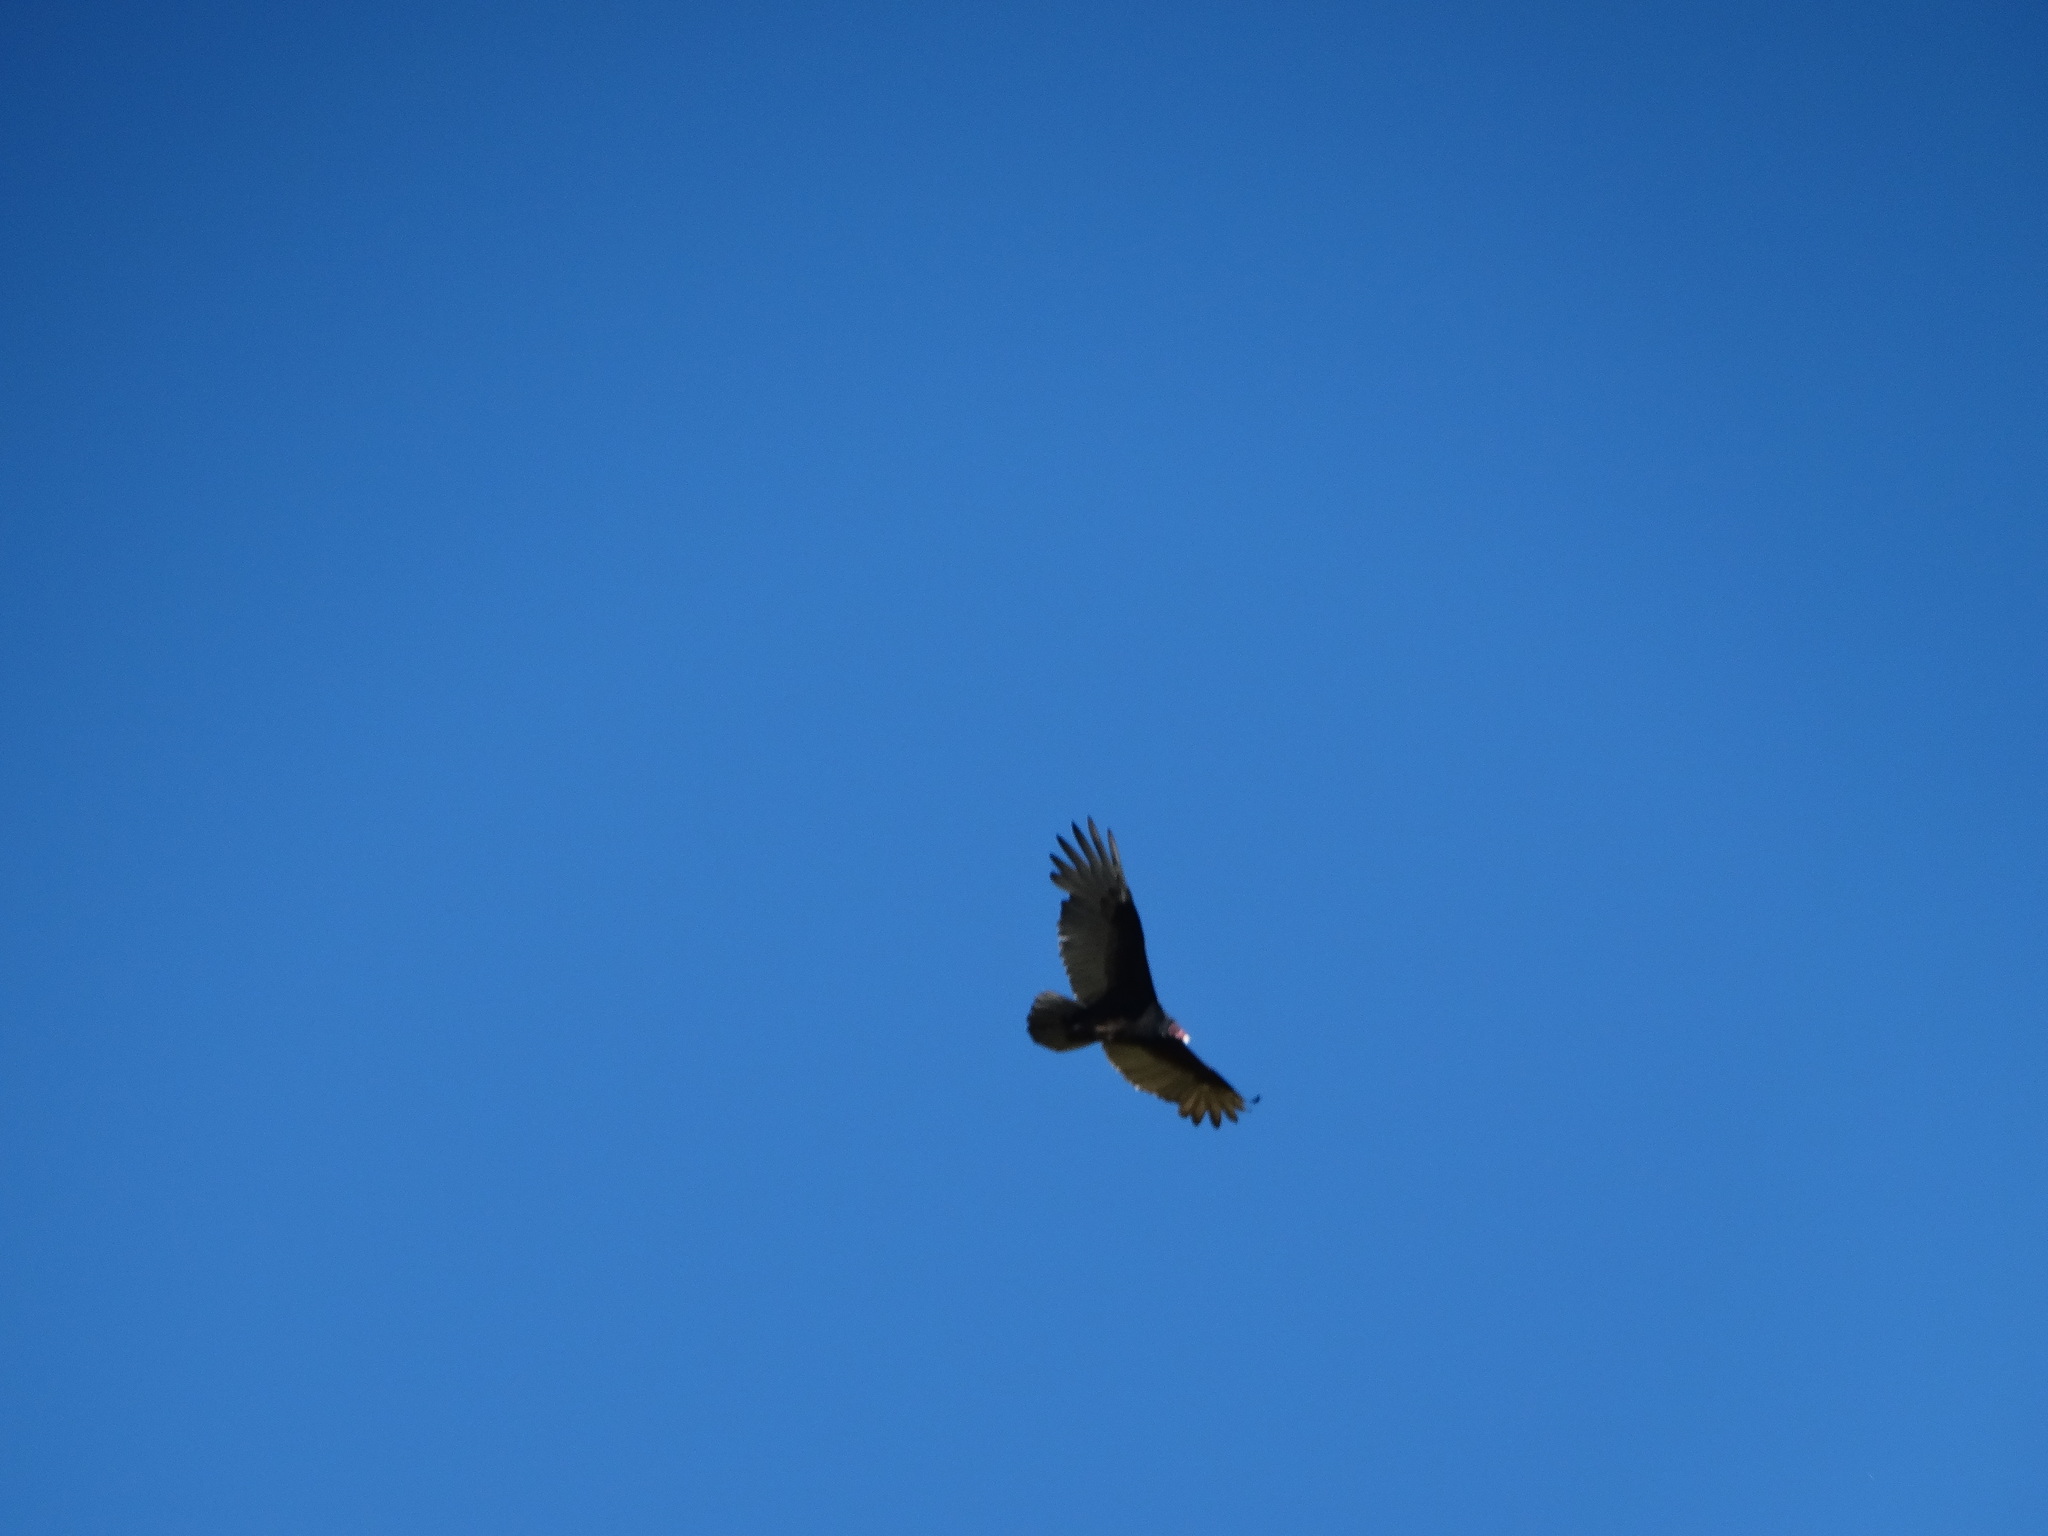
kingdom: Animalia
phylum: Chordata
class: Aves
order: Accipitriformes
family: Cathartidae
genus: Cathartes
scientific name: Cathartes aura
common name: Turkey vulture
